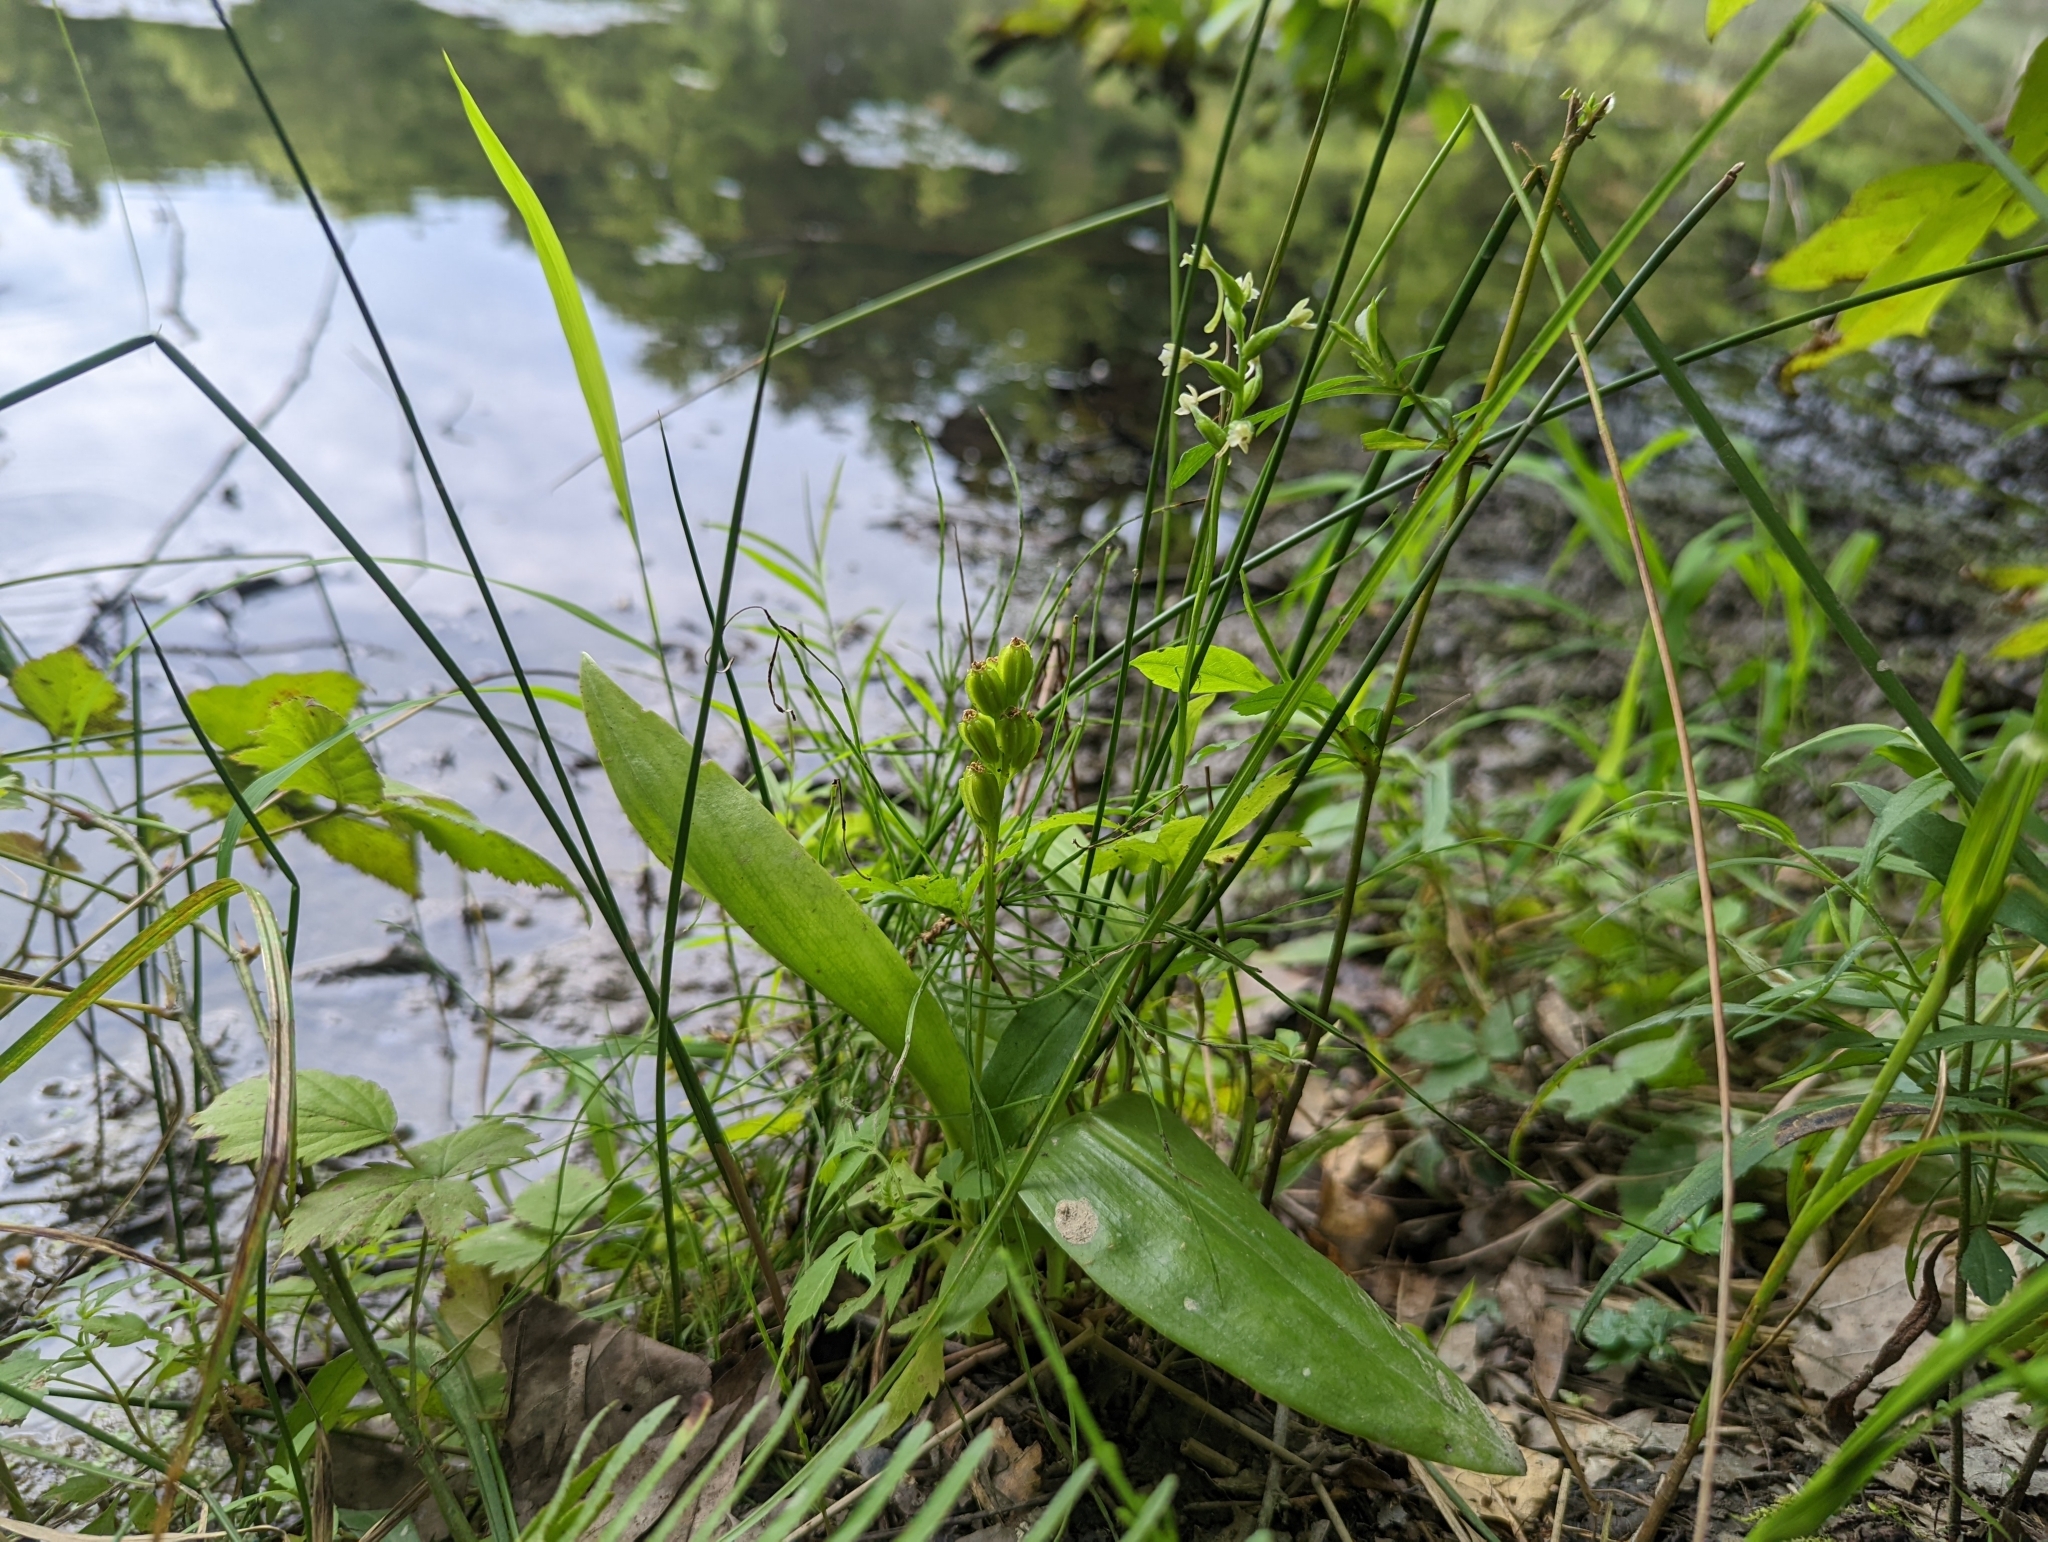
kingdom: Animalia
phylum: Arthropoda
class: Insecta
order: Coleoptera
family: Curculionidae
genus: Liparis
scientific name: Liparis loeselii
